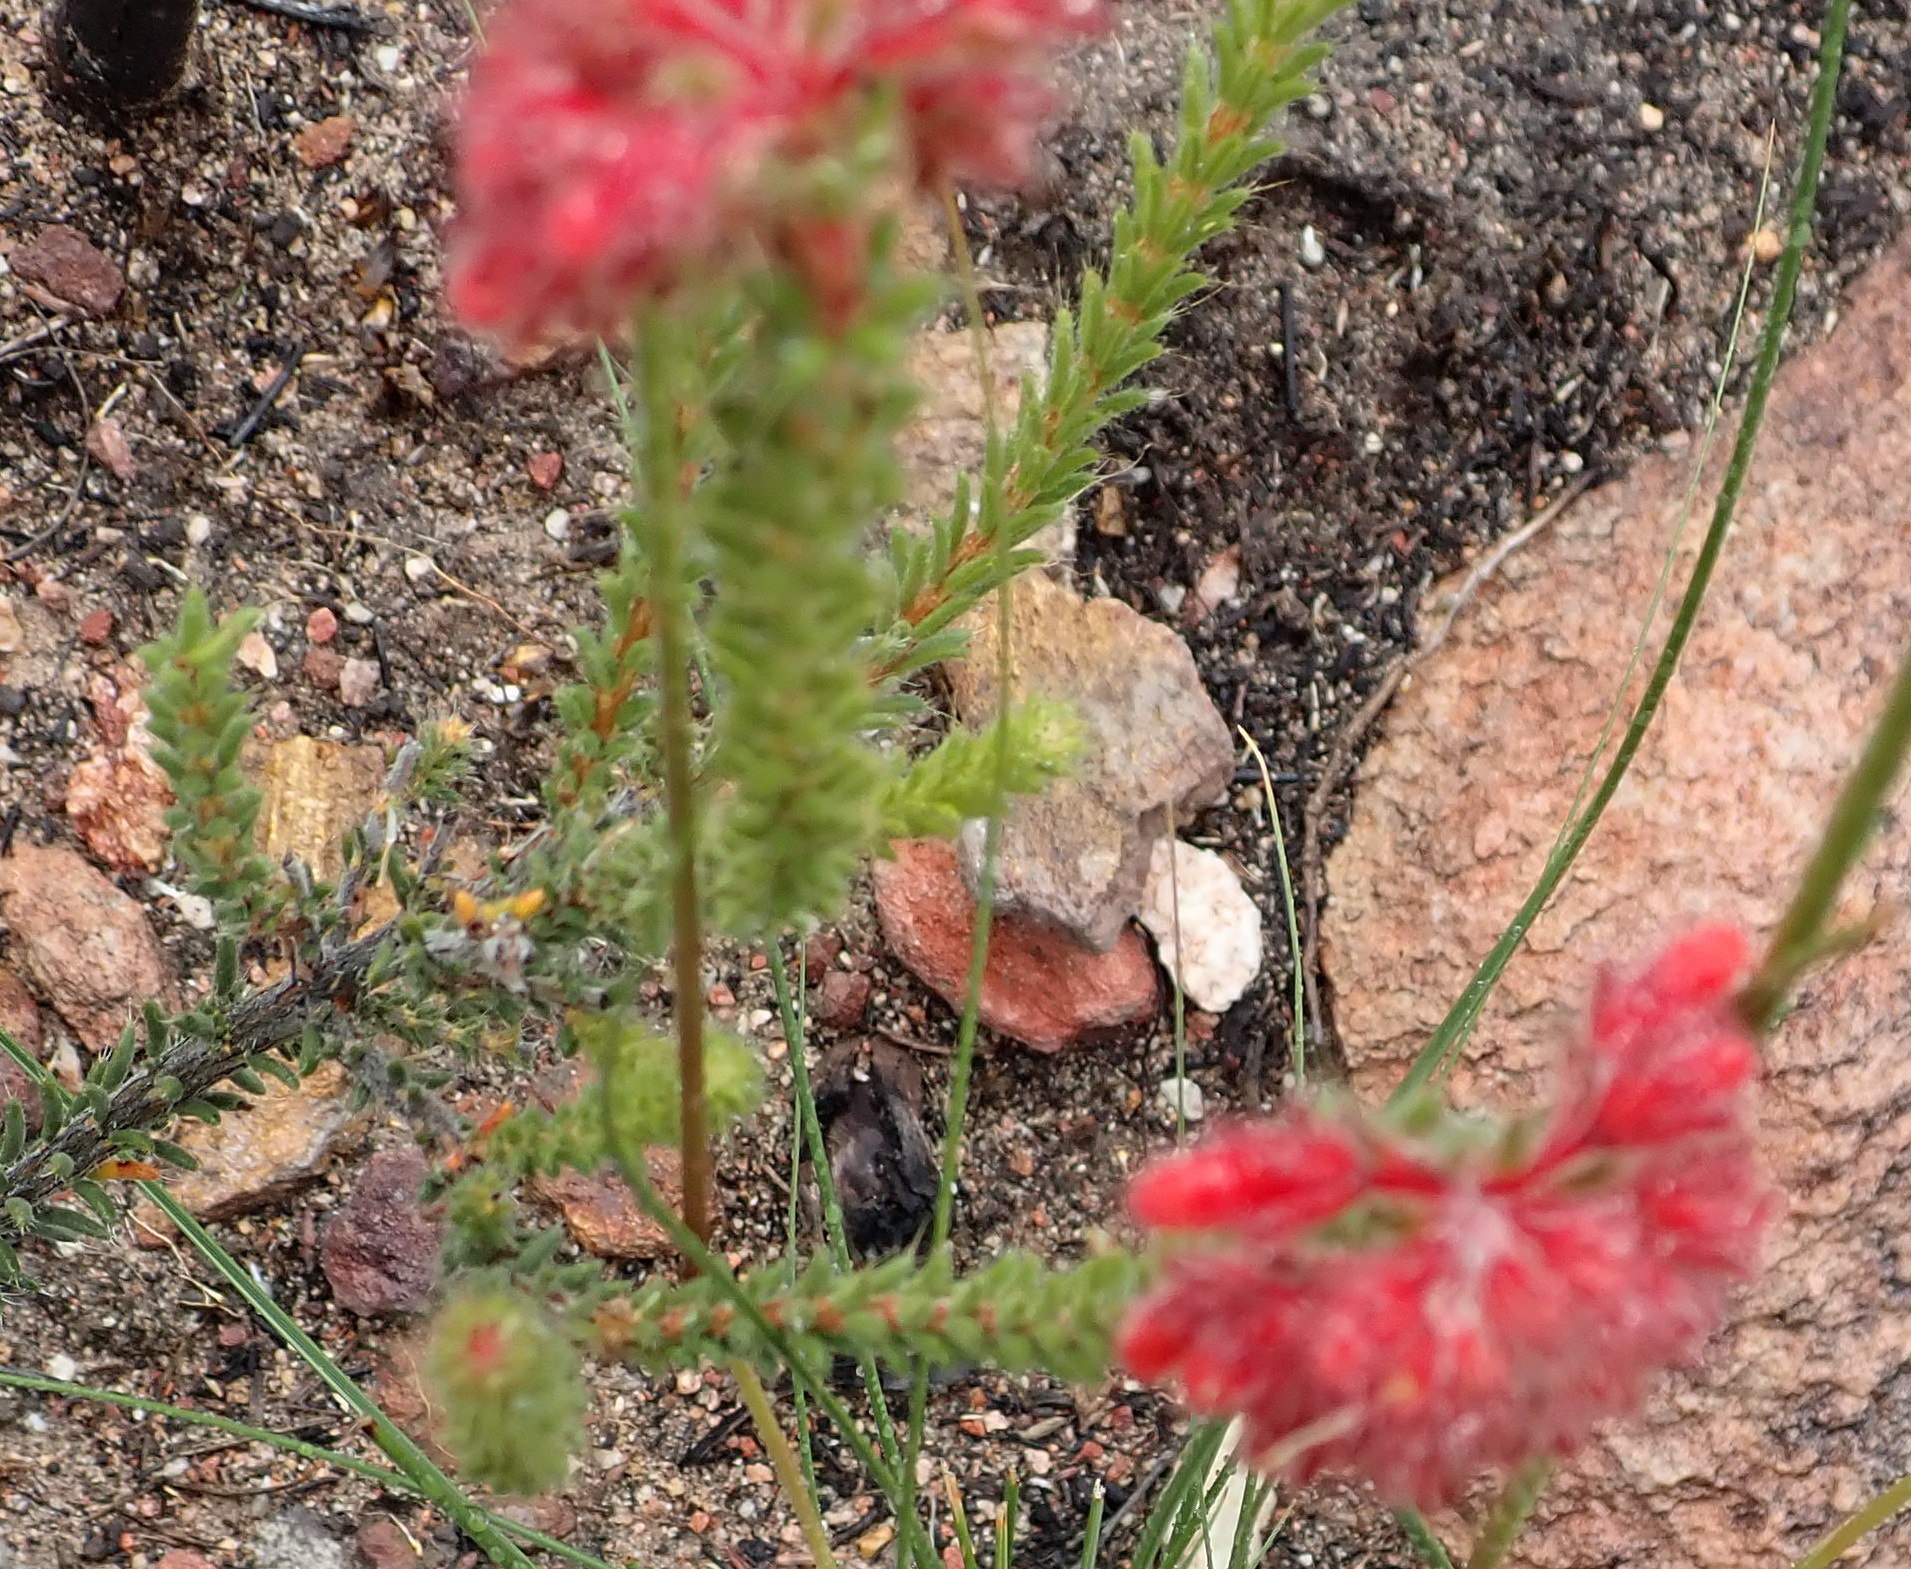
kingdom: Plantae
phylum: Tracheophyta
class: Magnoliopsida
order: Ericales
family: Ericaceae
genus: Erica
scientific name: Erica cerinthoides
